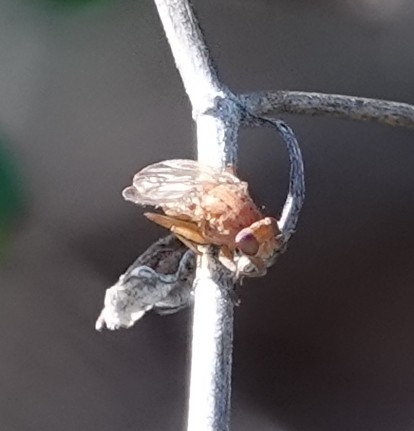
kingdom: Animalia
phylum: Arthropoda
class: Insecta
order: Diptera
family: Heleomyzidae
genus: Suillia
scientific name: Suillia quinquepunctata
